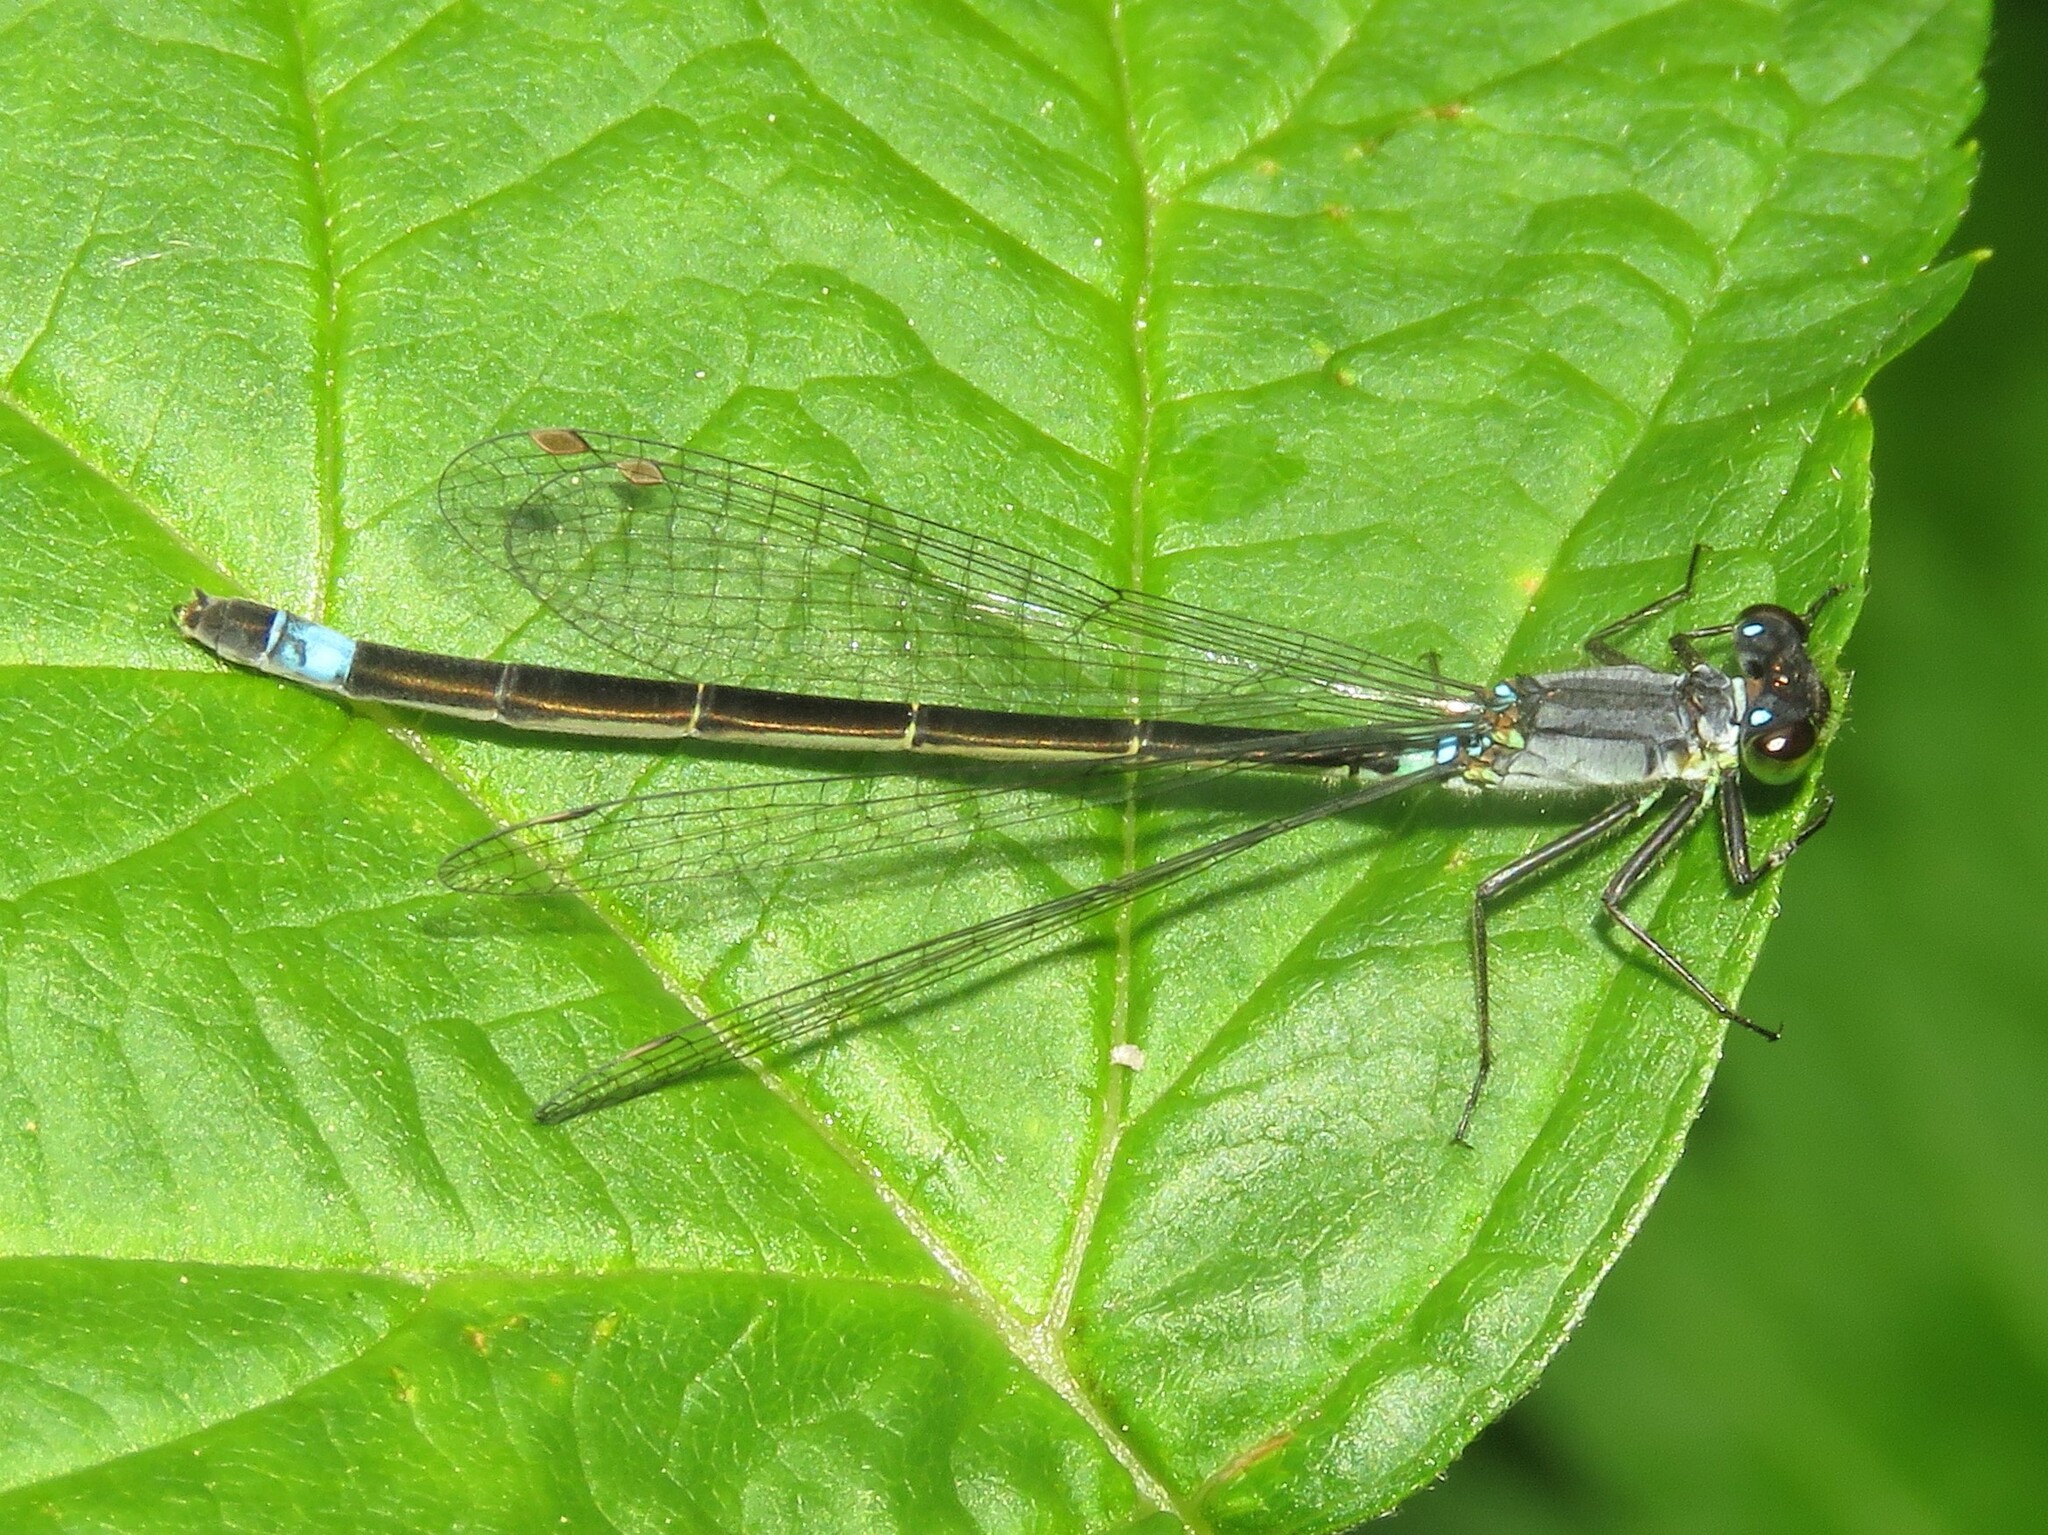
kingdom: Animalia
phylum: Arthropoda
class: Insecta
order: Odonata
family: Coenagrionidae
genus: Ischnura
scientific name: Ischnura cervula
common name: Pacific forktail
